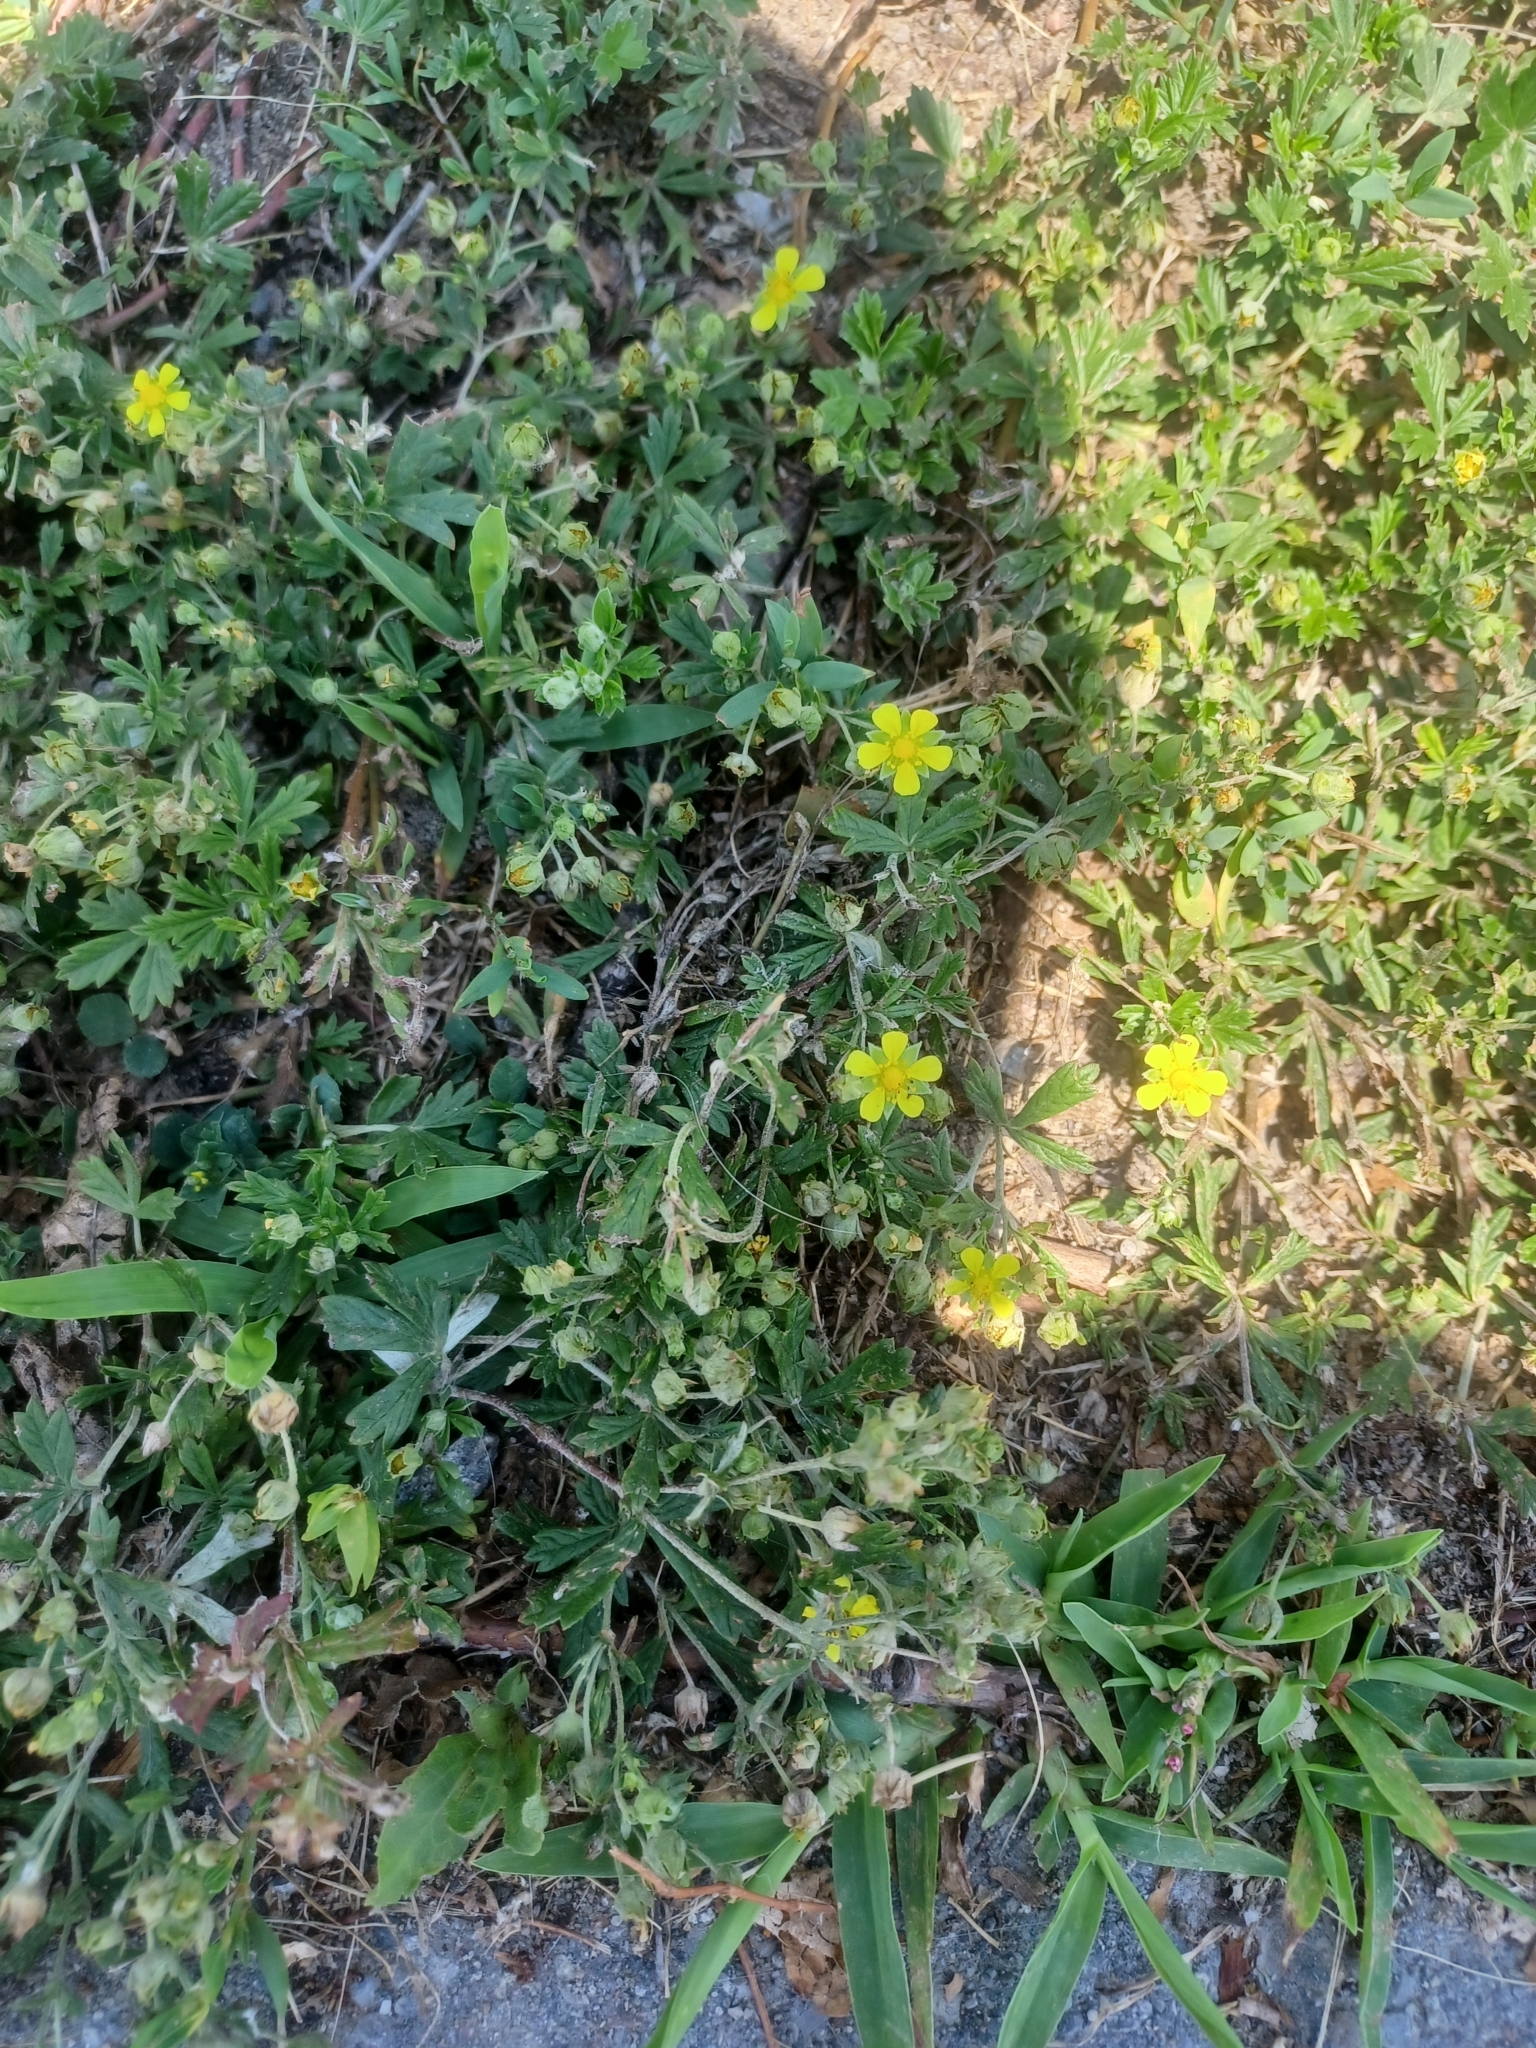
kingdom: Plantae
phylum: Tracheophyta
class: Magnoliopsida
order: Rosales
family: Rosaceae
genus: Potentilla
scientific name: Potentilla argentea
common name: Hoary cinquefoil
